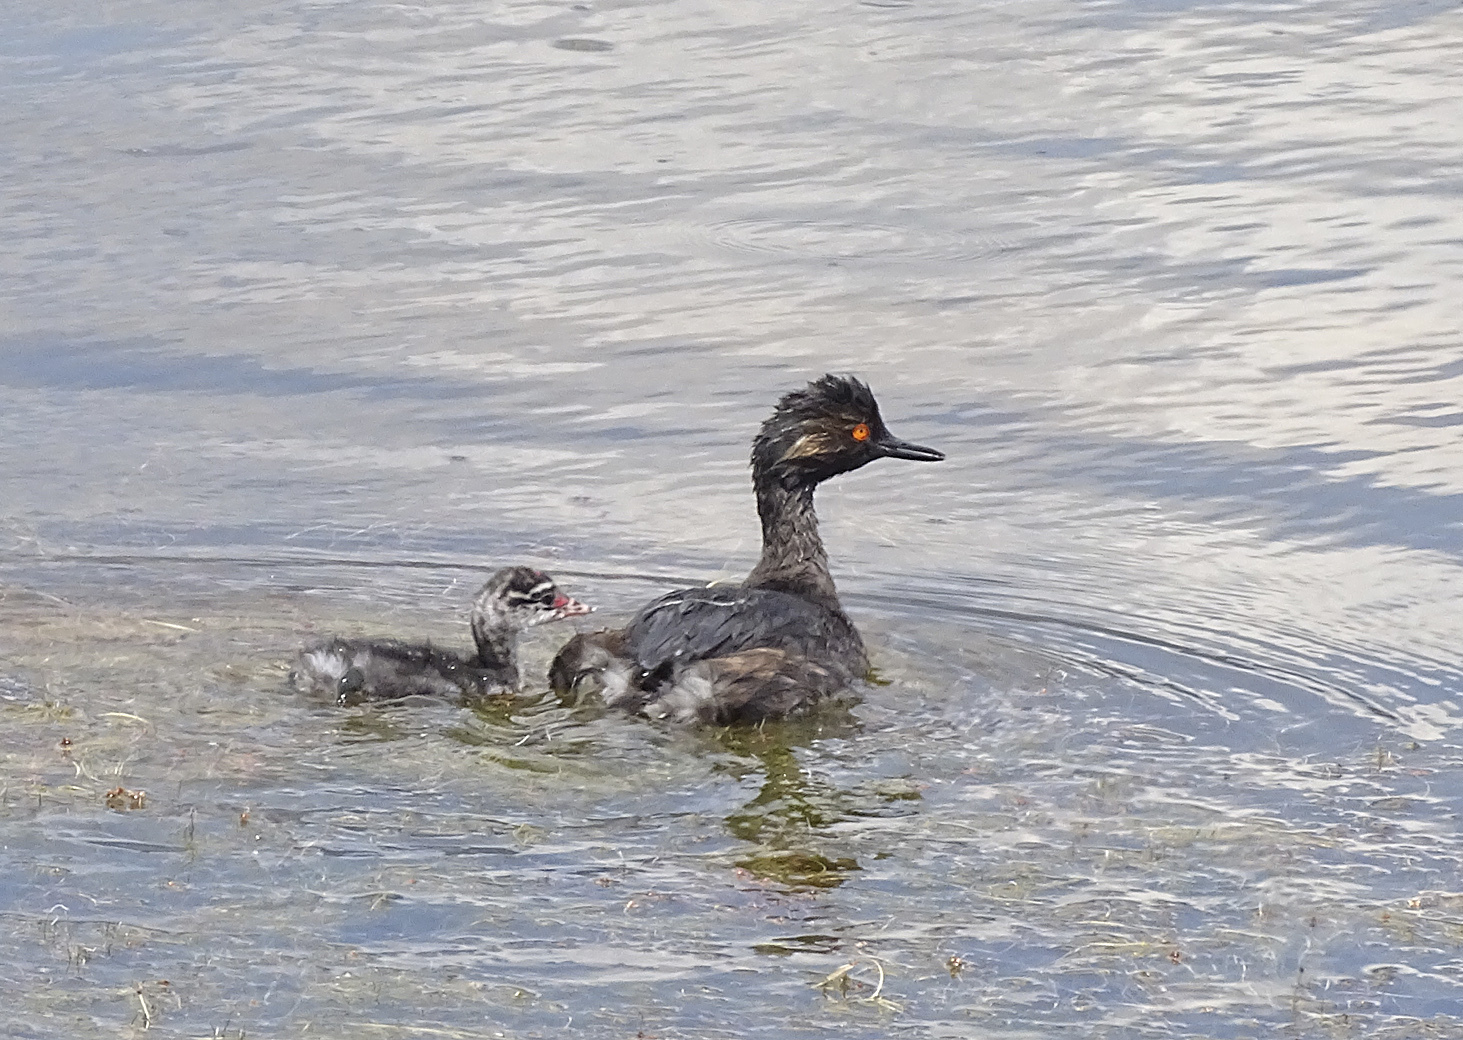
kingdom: Animalia
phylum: Chordata
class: Aves
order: Podicipediformes
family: Podicipedidae
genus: Podiceps
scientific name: Podiceps nigricollis
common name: Black-necked grebe
